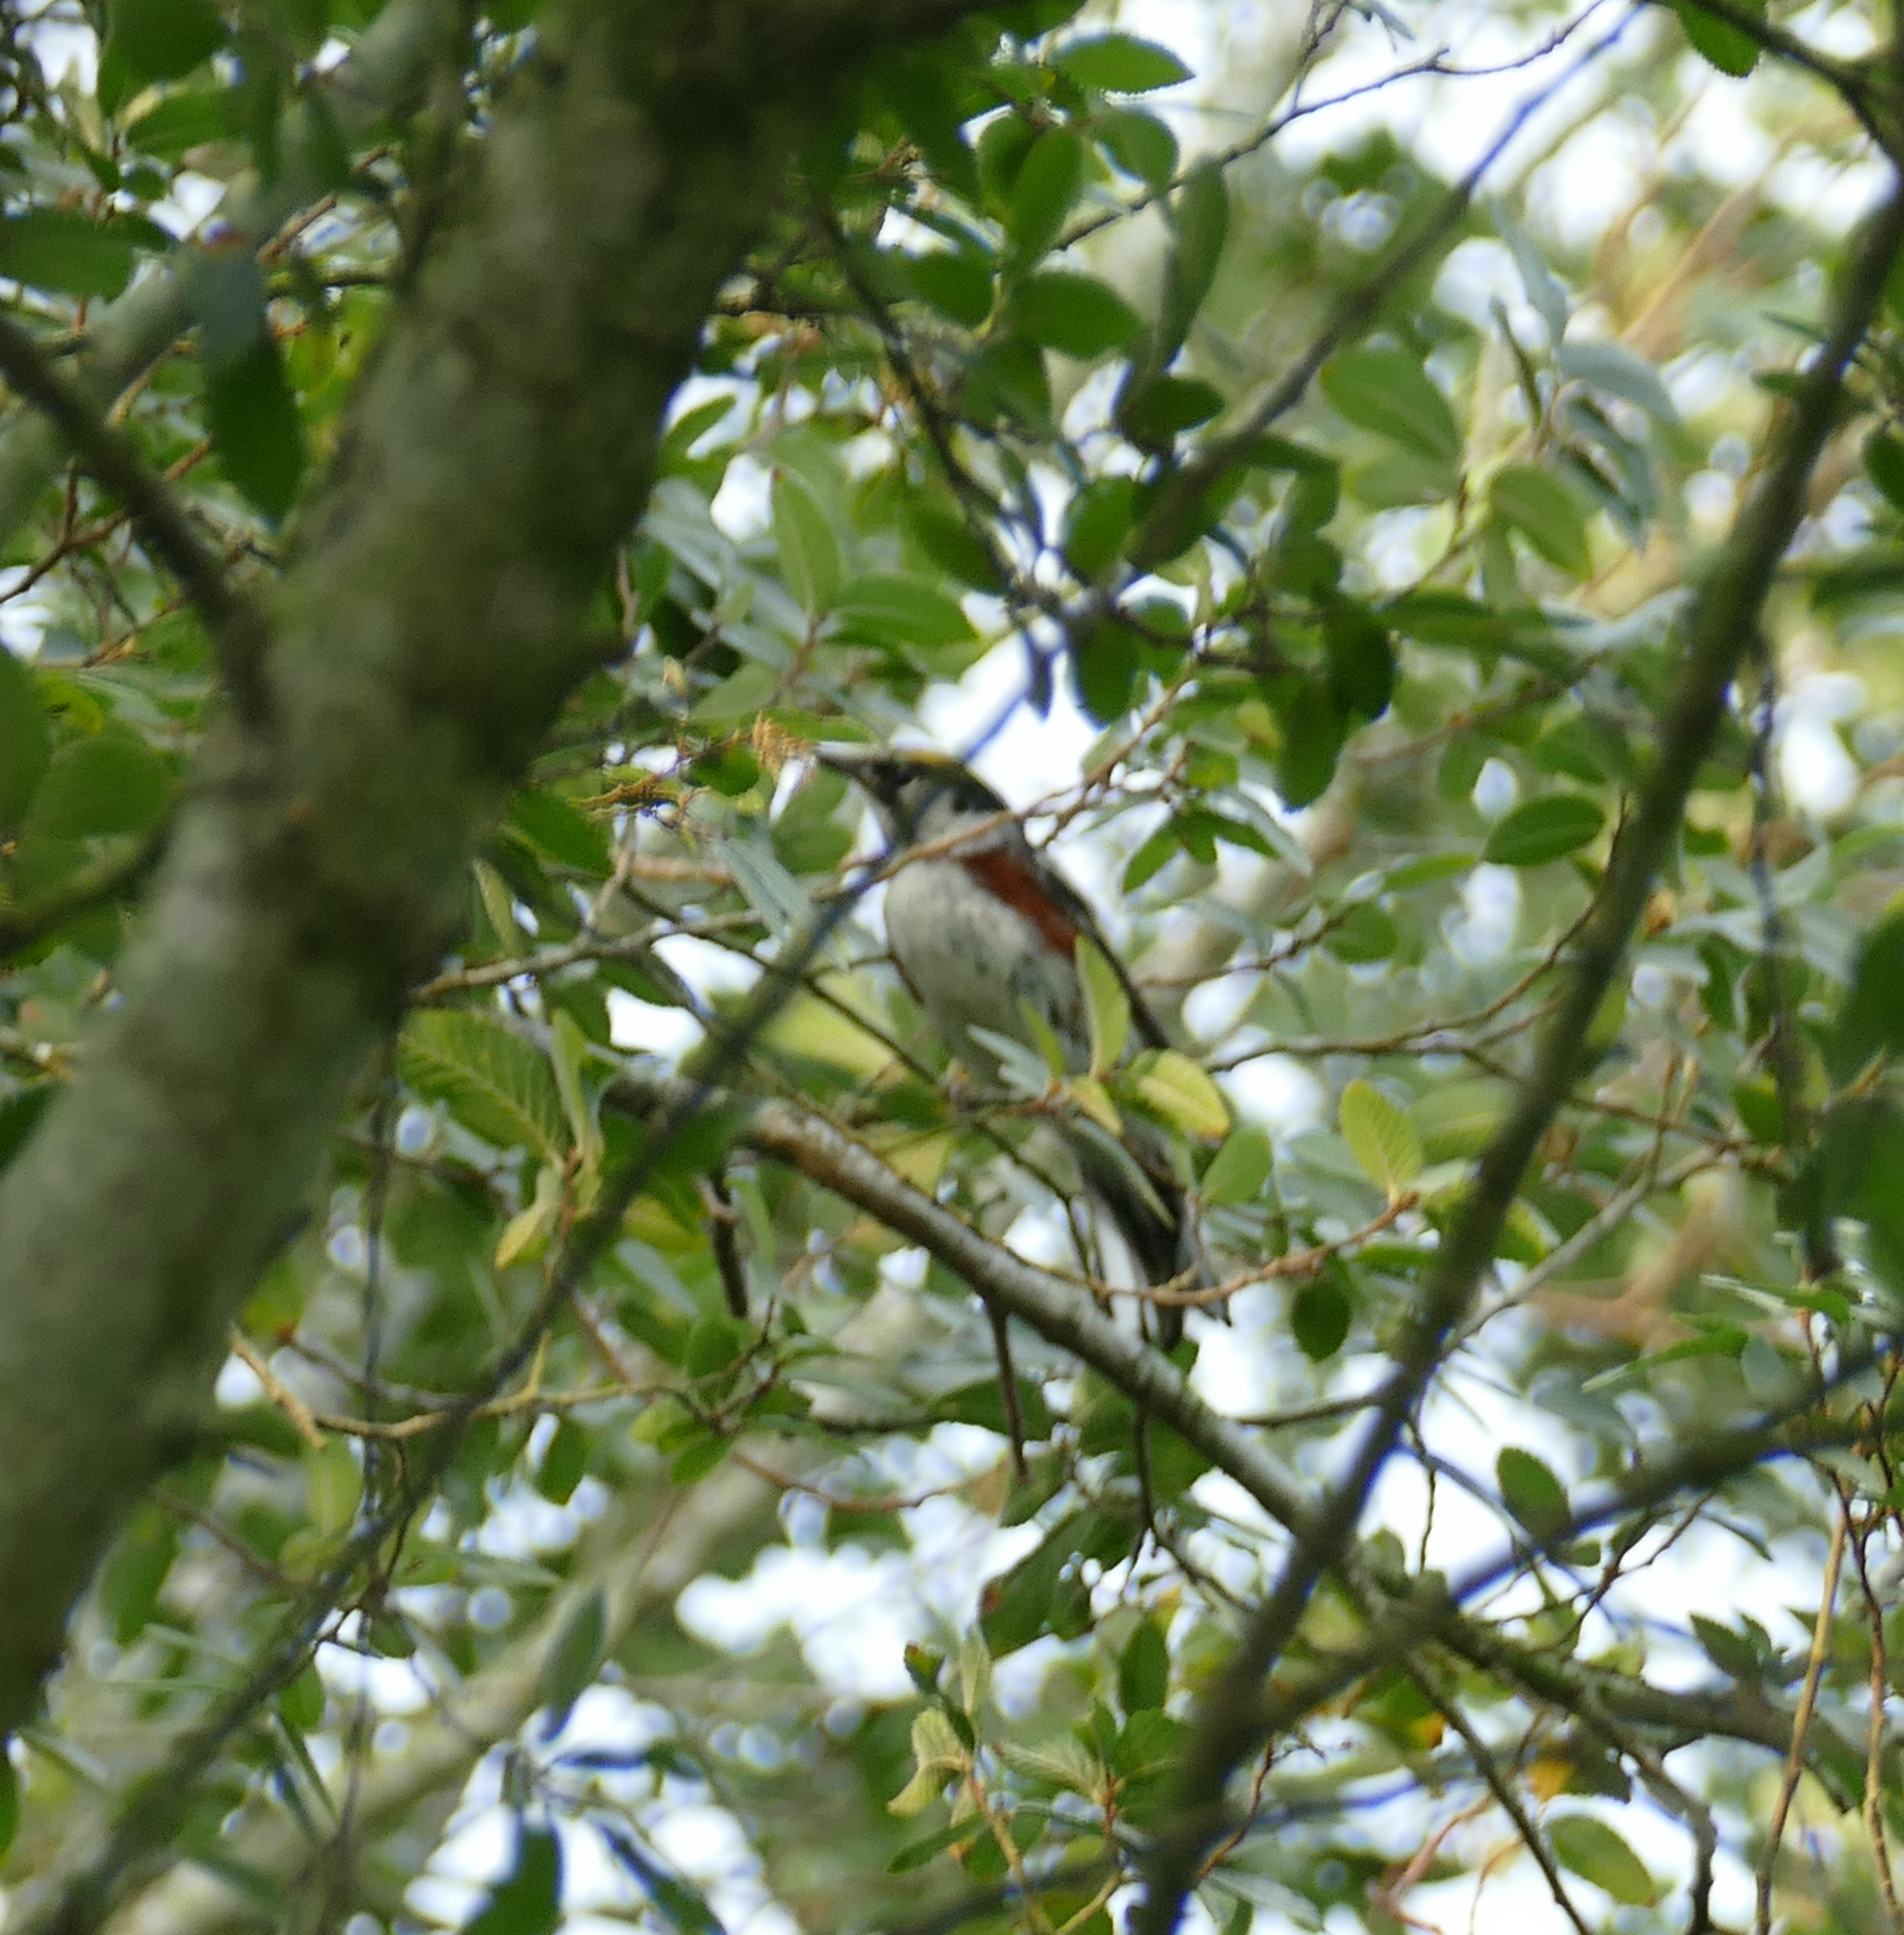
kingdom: Animalia
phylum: Chordata
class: Aves
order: Passeriformes
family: Parulidae
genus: Setophaga
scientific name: Setophaga pensylvanica
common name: Chestnut-sided warbler
